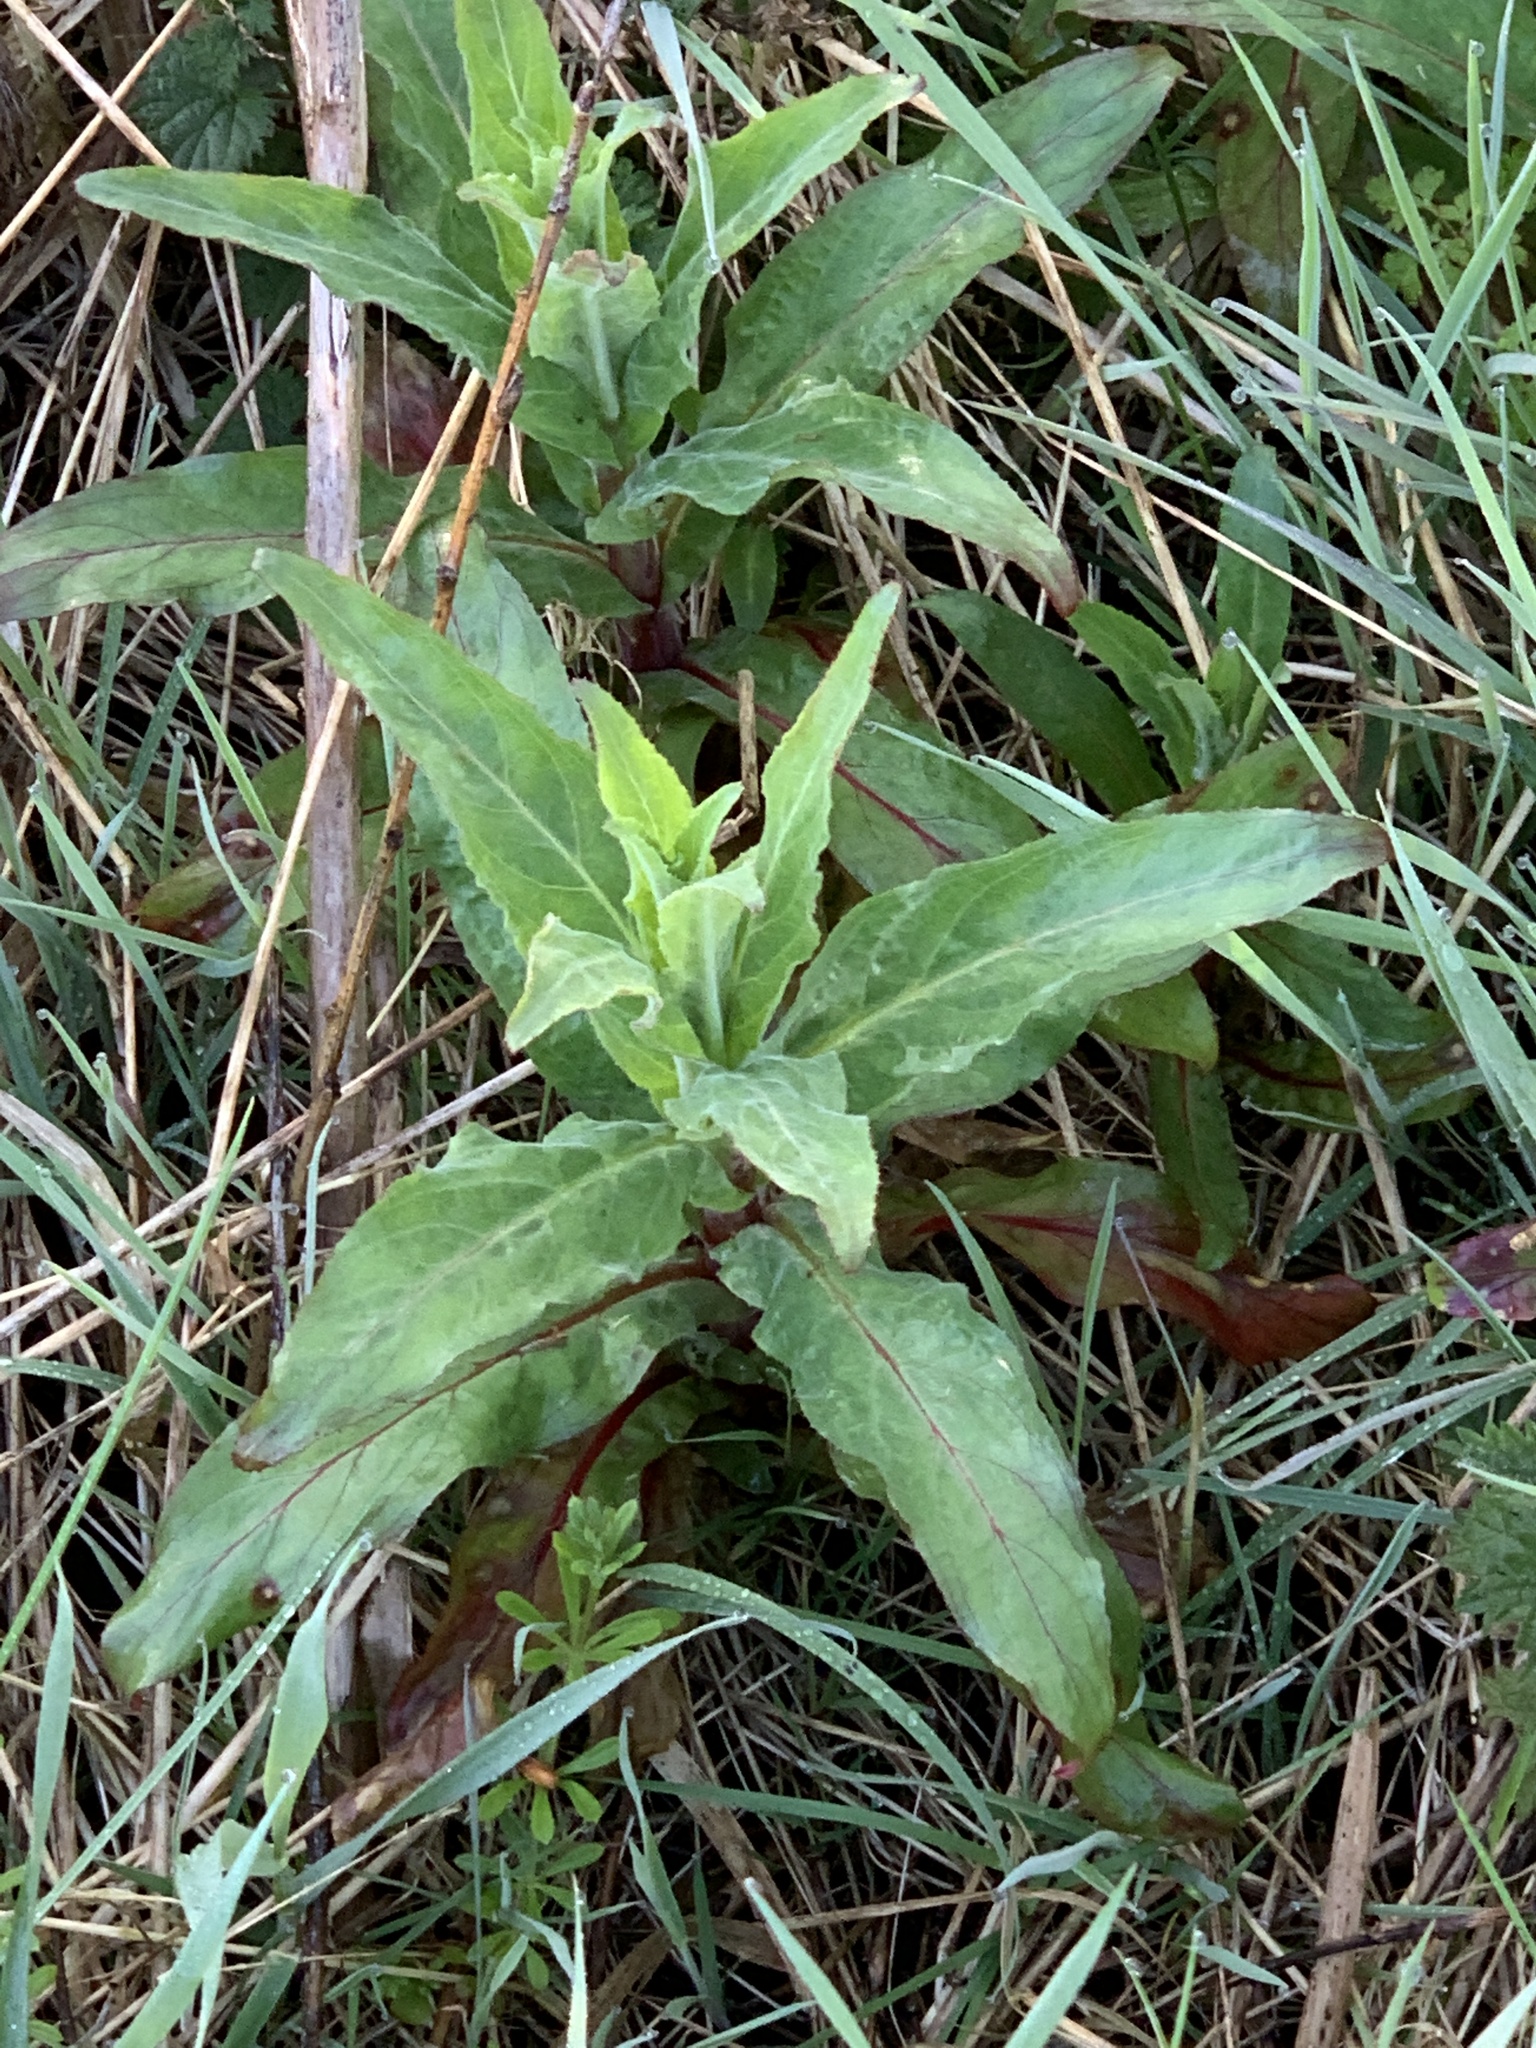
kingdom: Plantae
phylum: Tracheophyta
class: Magnoliopsida
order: Myrtales
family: Onagraceae
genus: Epilobium
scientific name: Epilobium hirsutum
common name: Great willowherb
